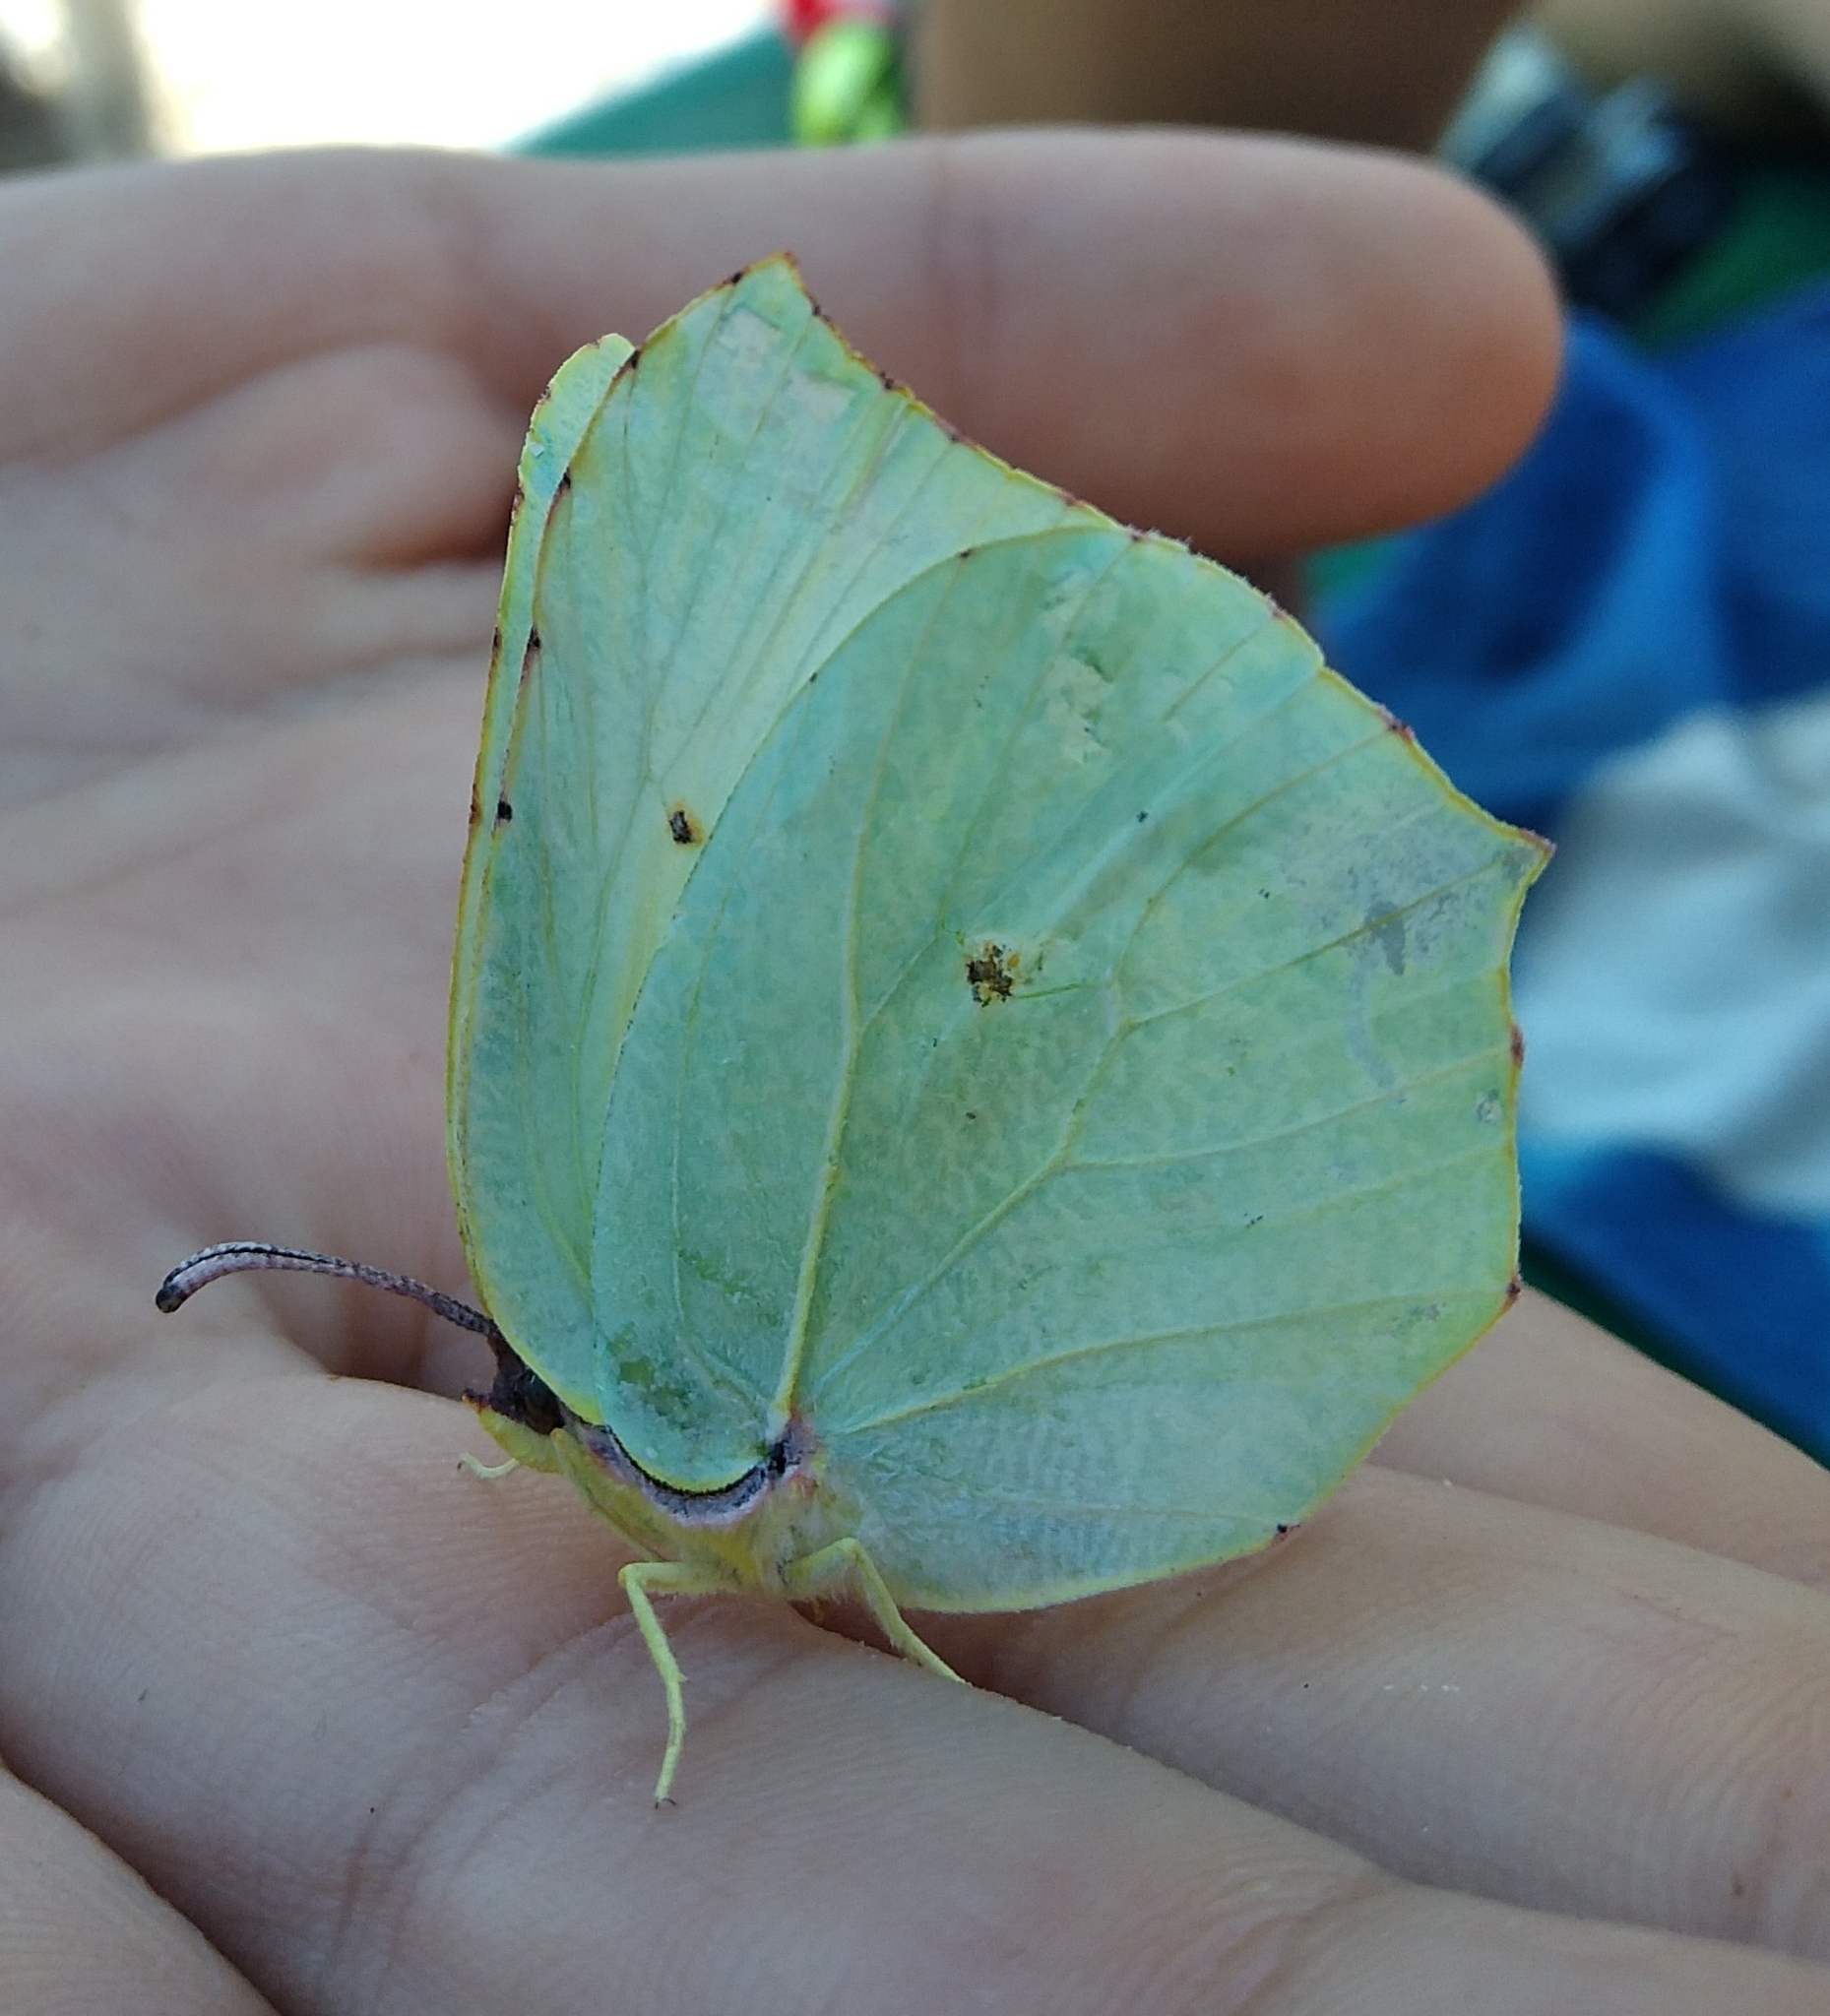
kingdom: Animalia
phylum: Arthropoda
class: Insecta
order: Lepidoptera
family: Pieridae
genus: Gonepteryx
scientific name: Gonepteryx rhamni
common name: Brimstone
